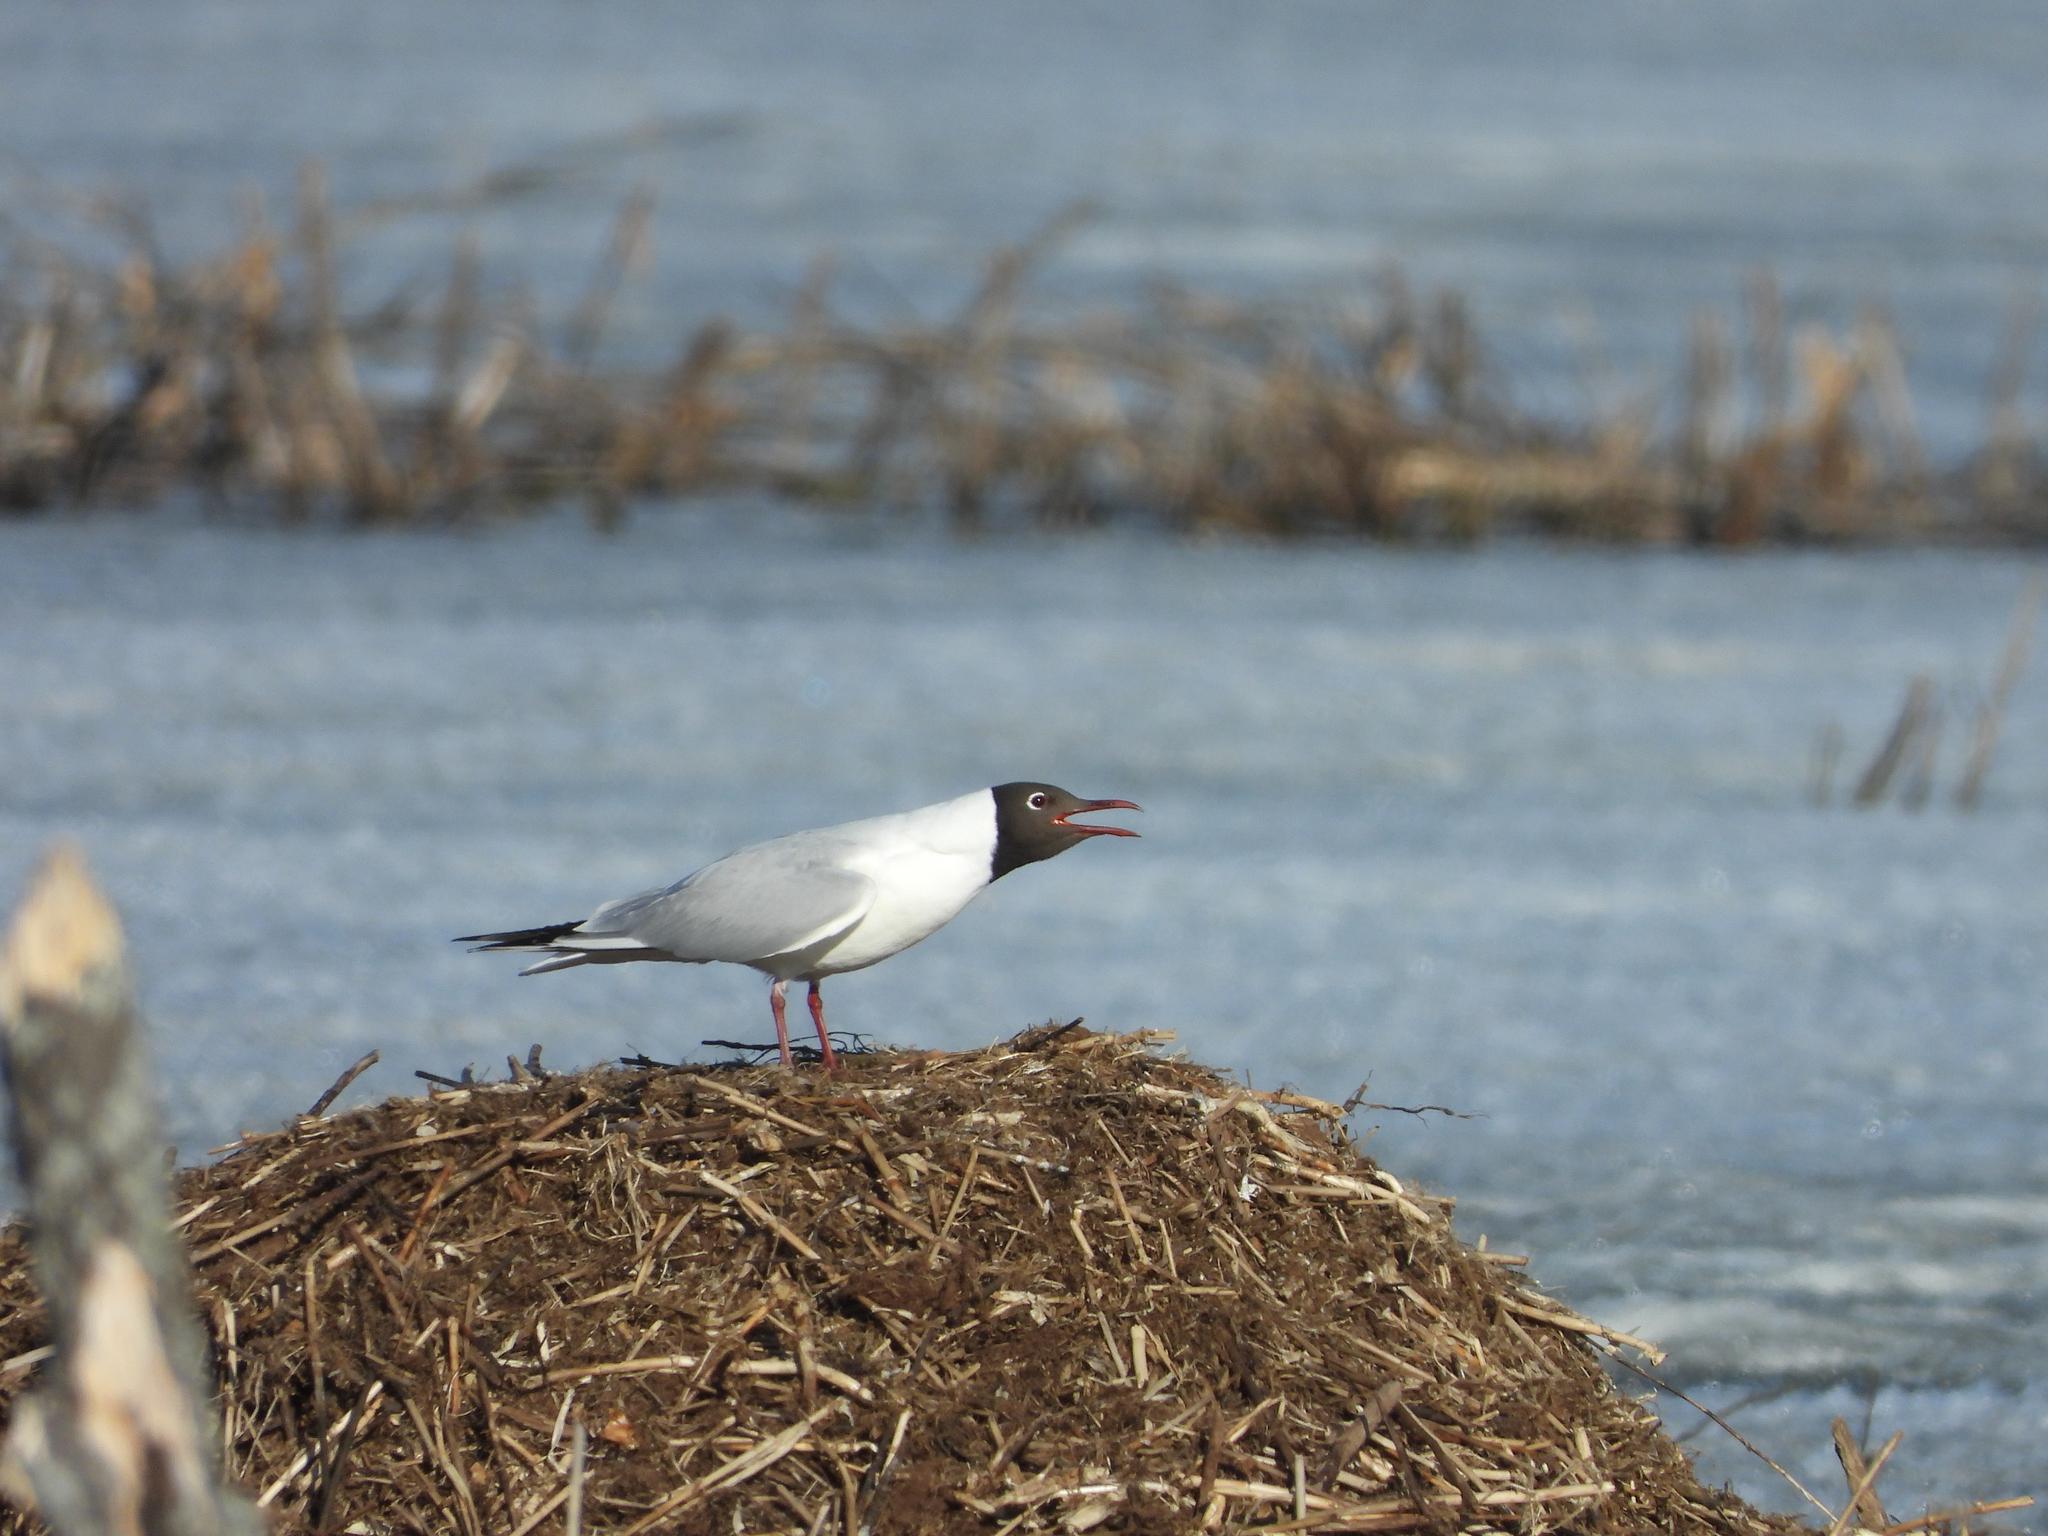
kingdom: Animalia
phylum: Chordata
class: Aves
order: Charadriiformes
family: Laridae
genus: Chroicocephalus
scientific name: Chroicocephalus ridibundus
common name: Black-headed gull
